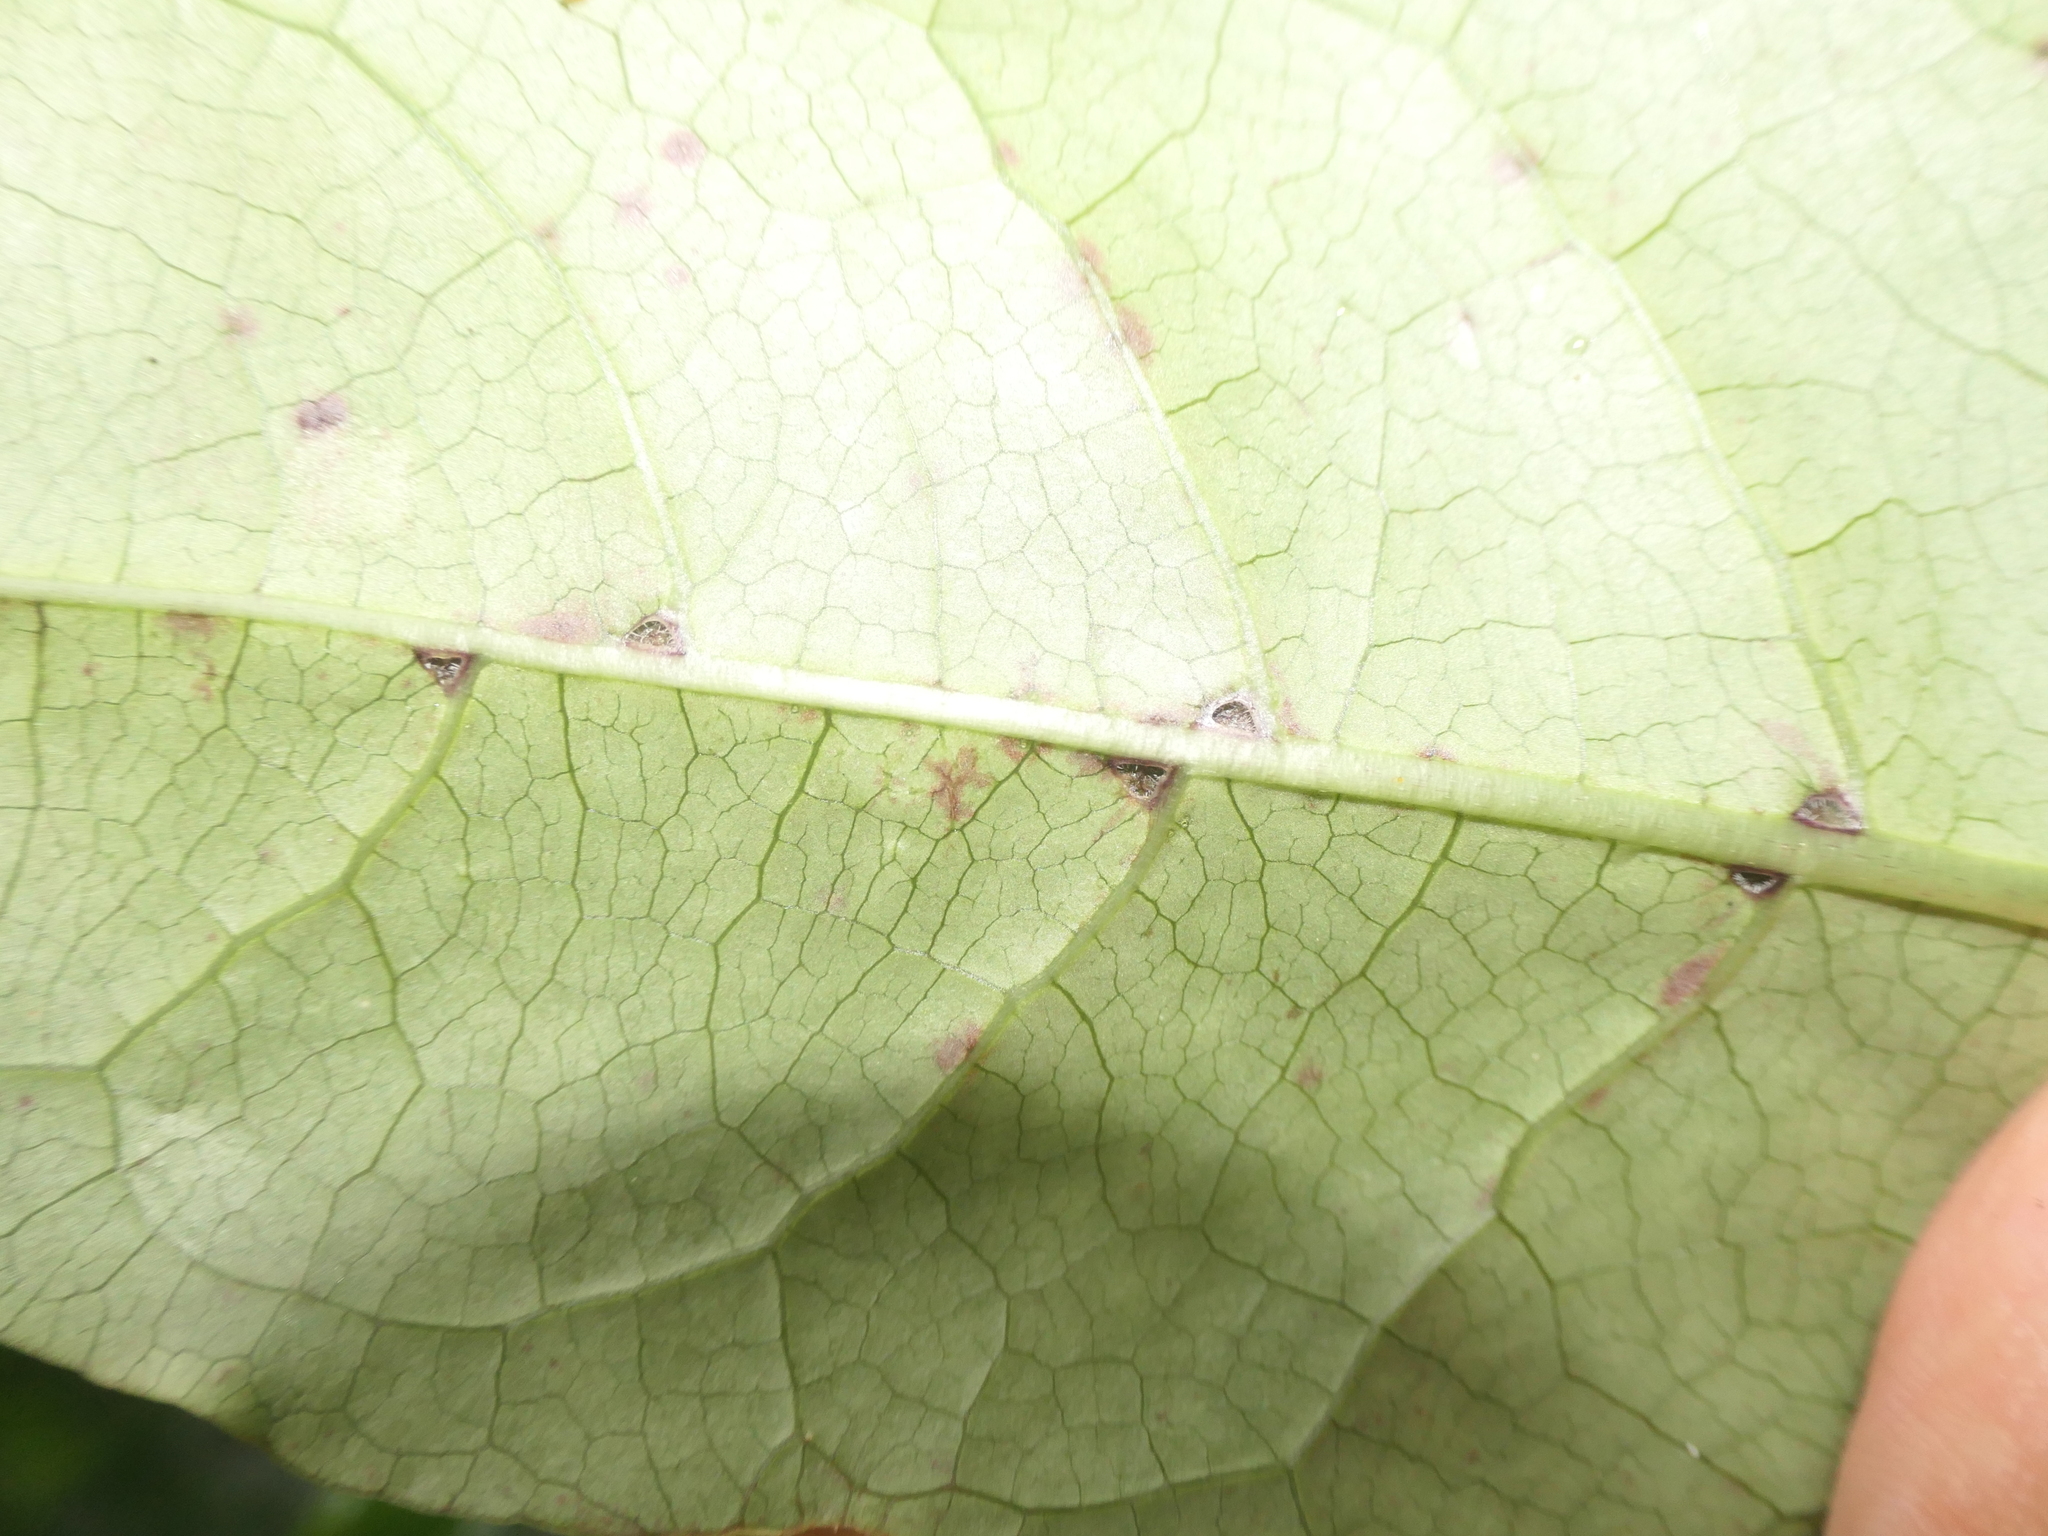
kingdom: Plantae
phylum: Tracheophyta
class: Magnoliopsida
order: Gentianales
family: Rubiaceae
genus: Coprosma
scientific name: Coprosma autumnalis
